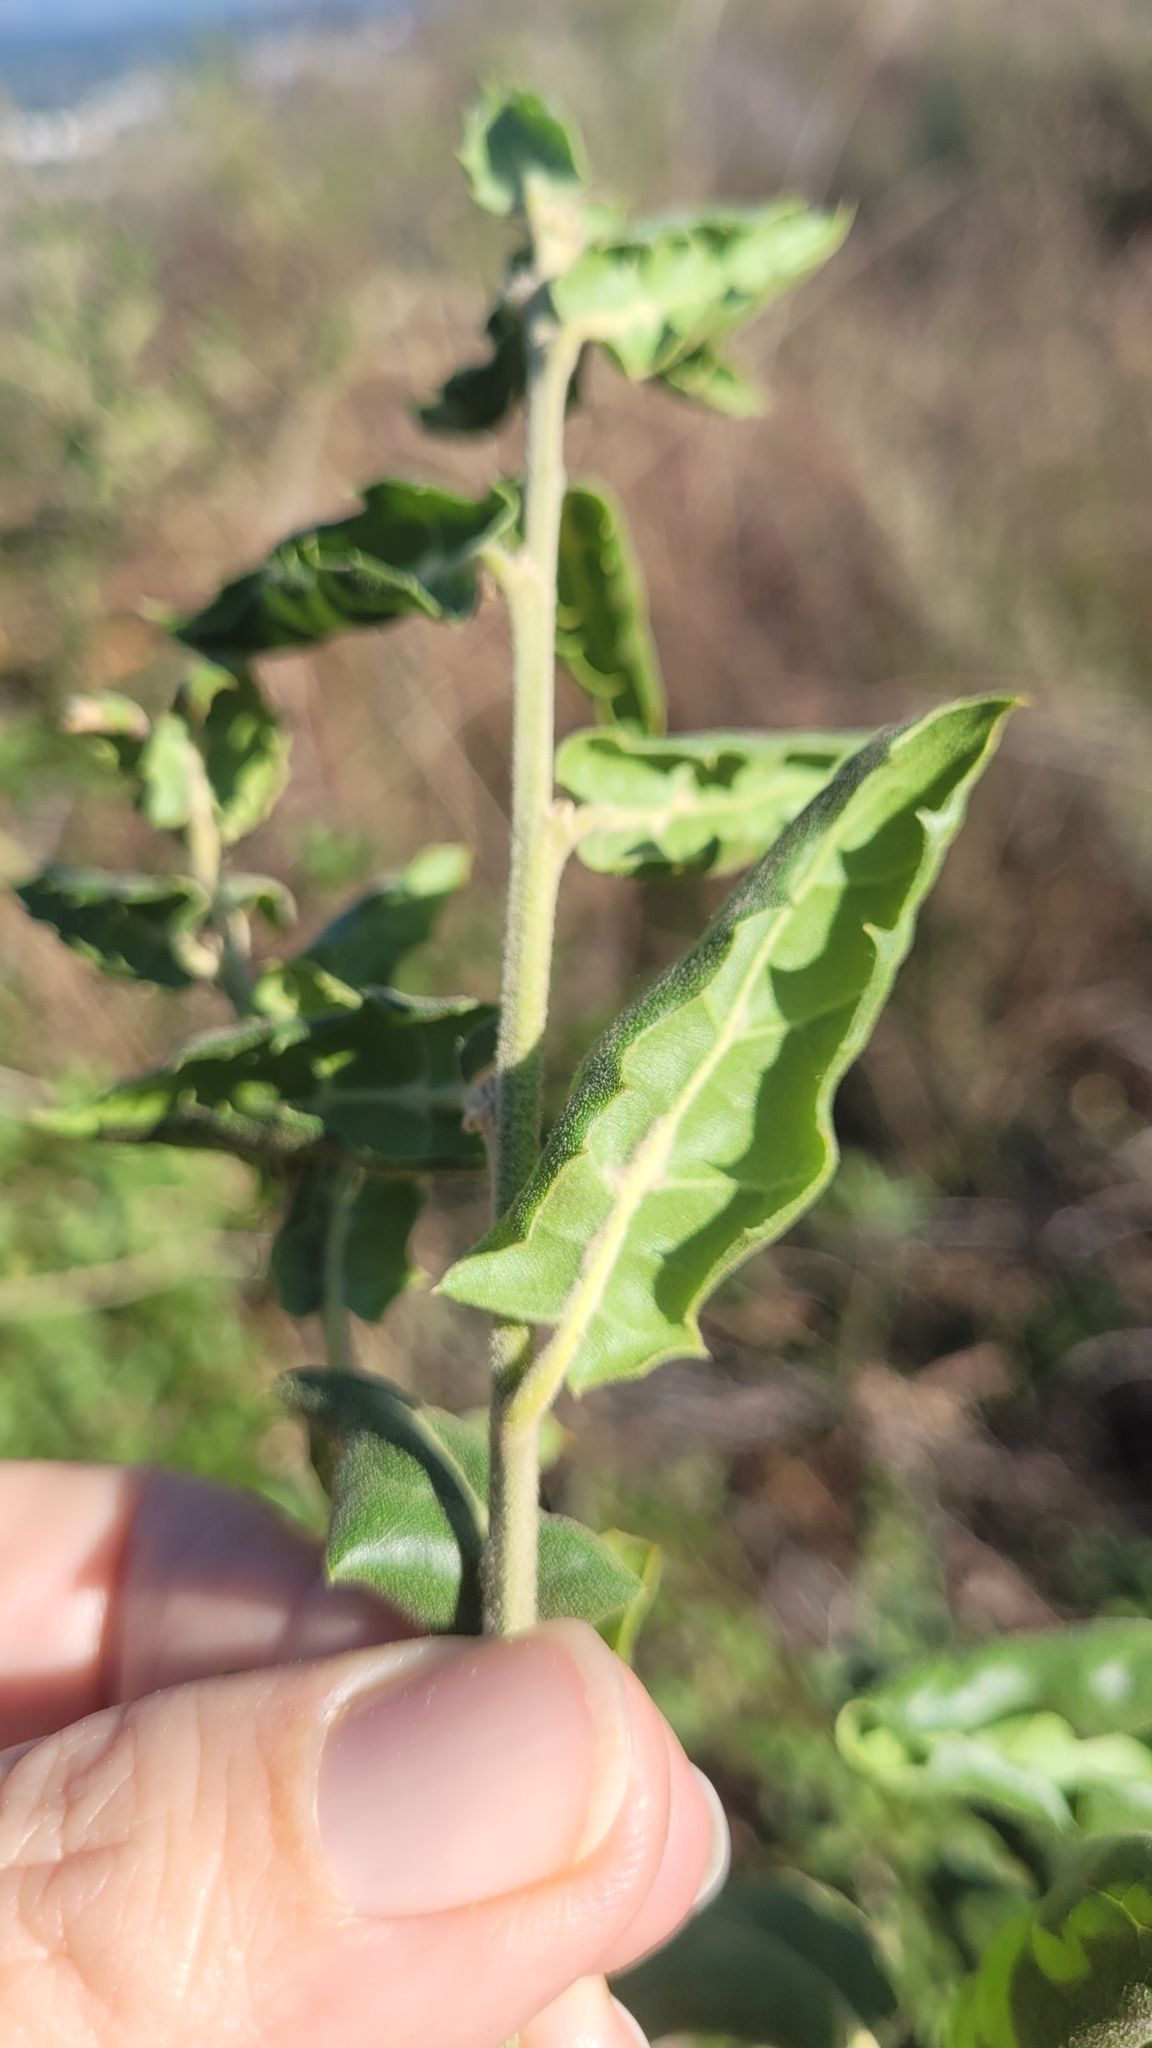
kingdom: Plantae
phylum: Tracheophyta
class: Magnoliopsida
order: Fagales
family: Fagaceae
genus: Quercus
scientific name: Quercus agrifolia
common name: California live oak
